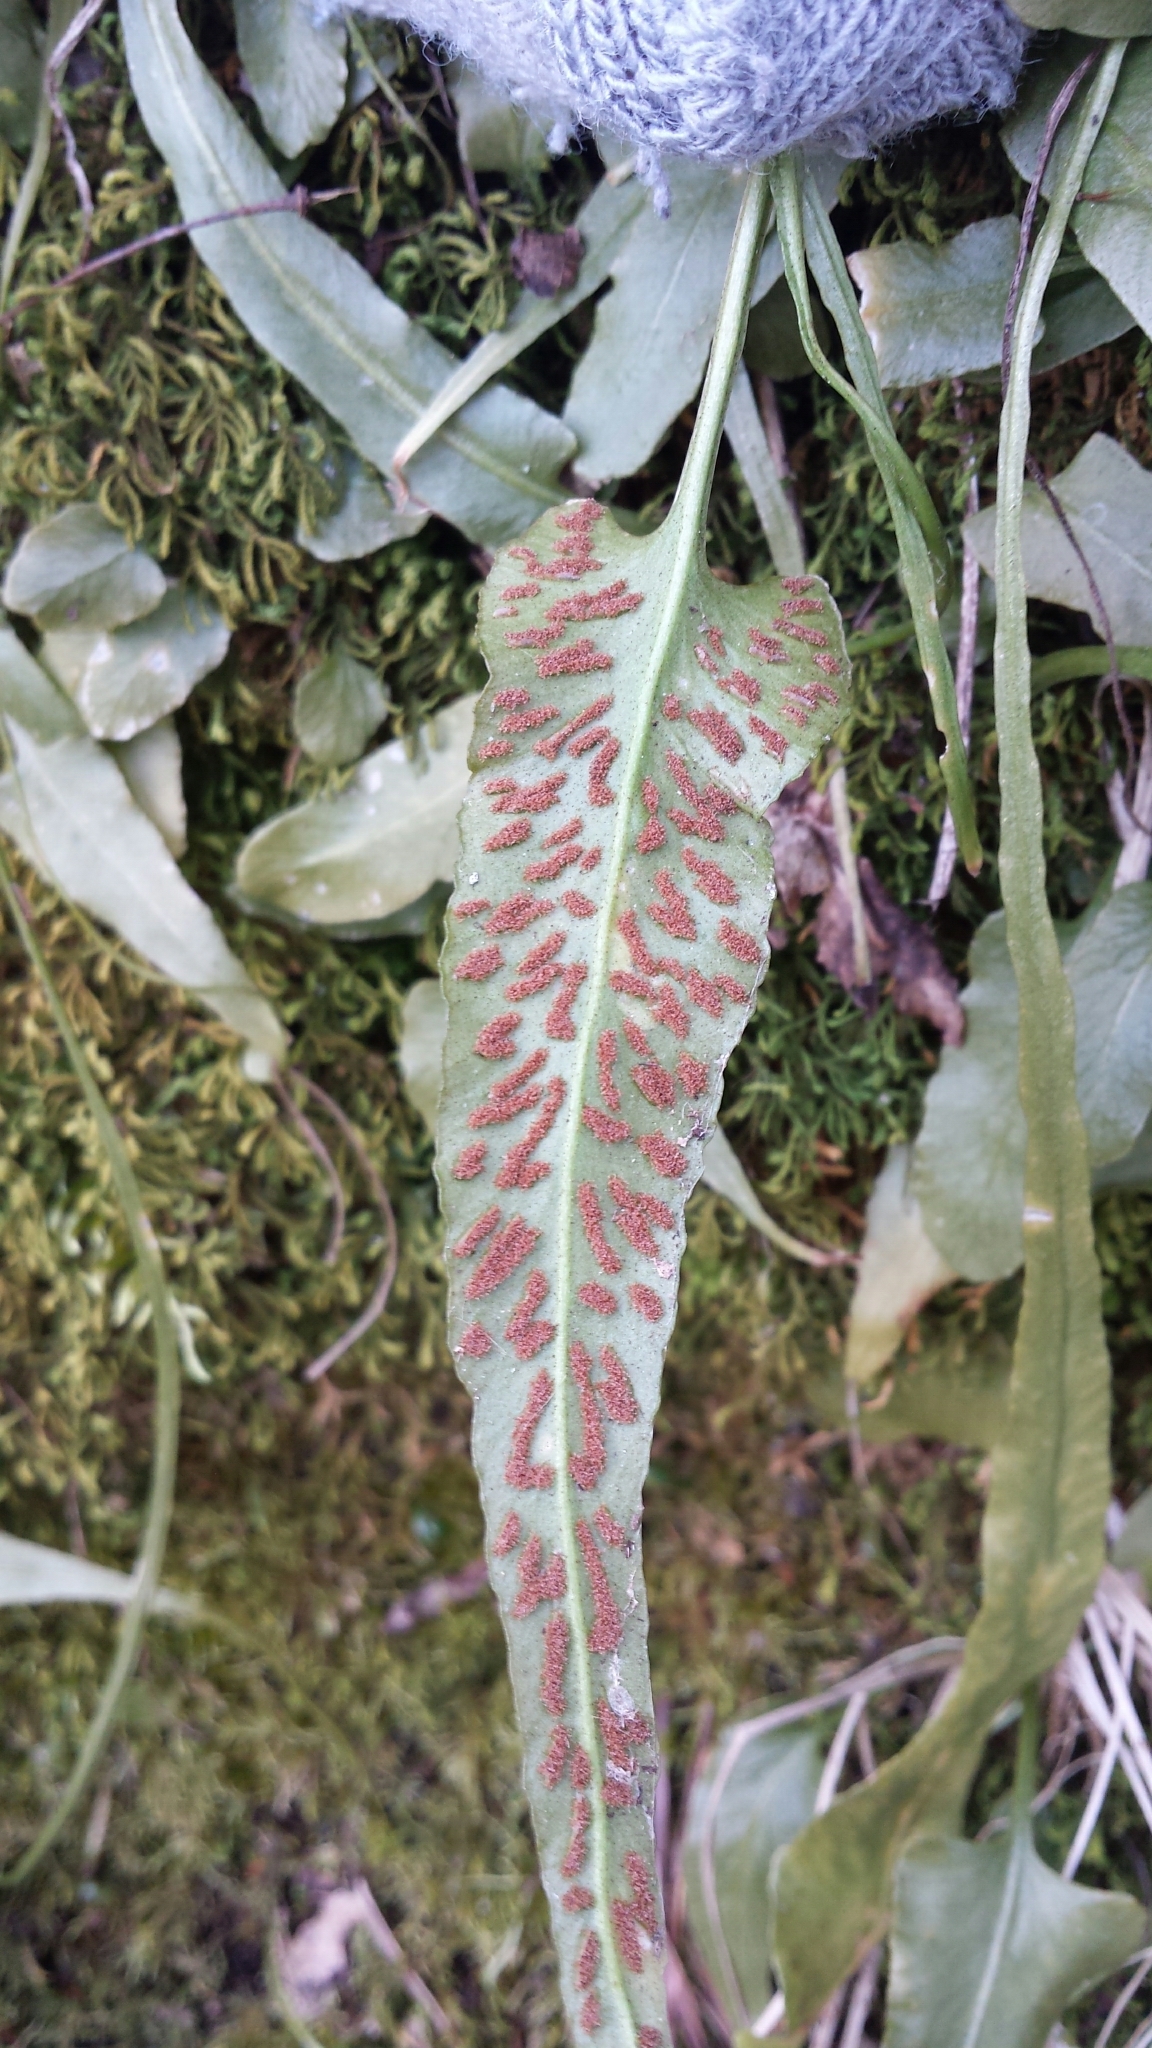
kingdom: Plantae
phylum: Tracheophyta
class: Polypodiopsida
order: Polypodiales
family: Aspleniaceae
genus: Asplenium
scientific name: Asplenium rhizophyllum
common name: Walking fern
